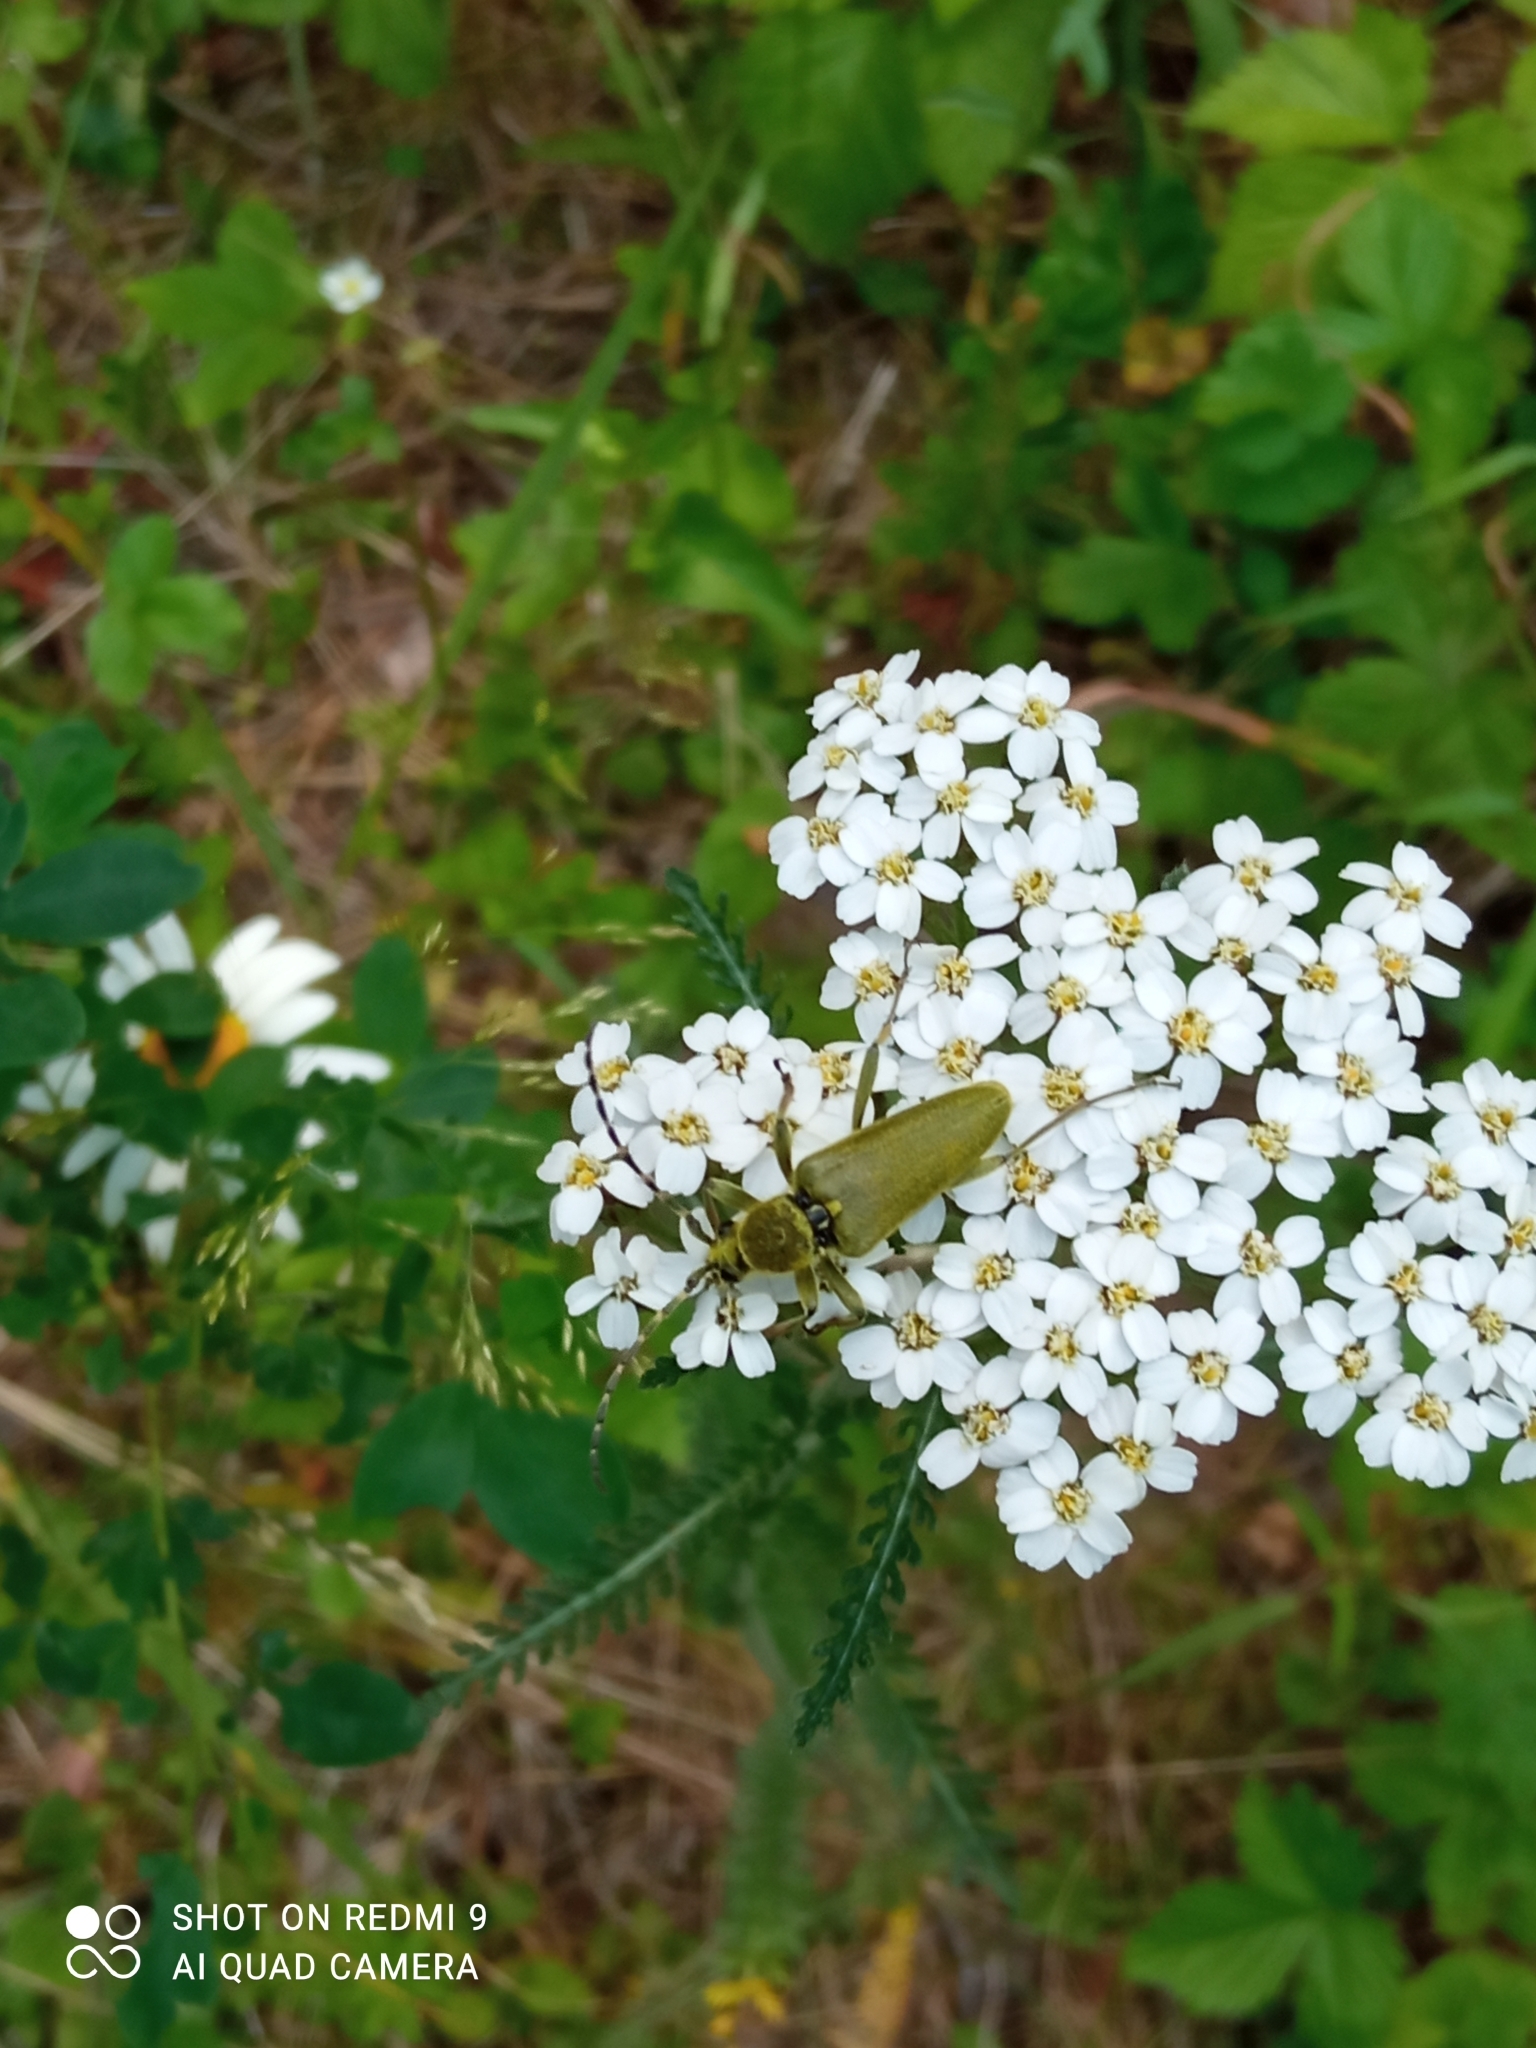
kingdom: Animalia
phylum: Arthropoda
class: Insecta
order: Coleoptera
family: Cerambycidae
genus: Lepturobosca
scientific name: Lepturobosca virens
